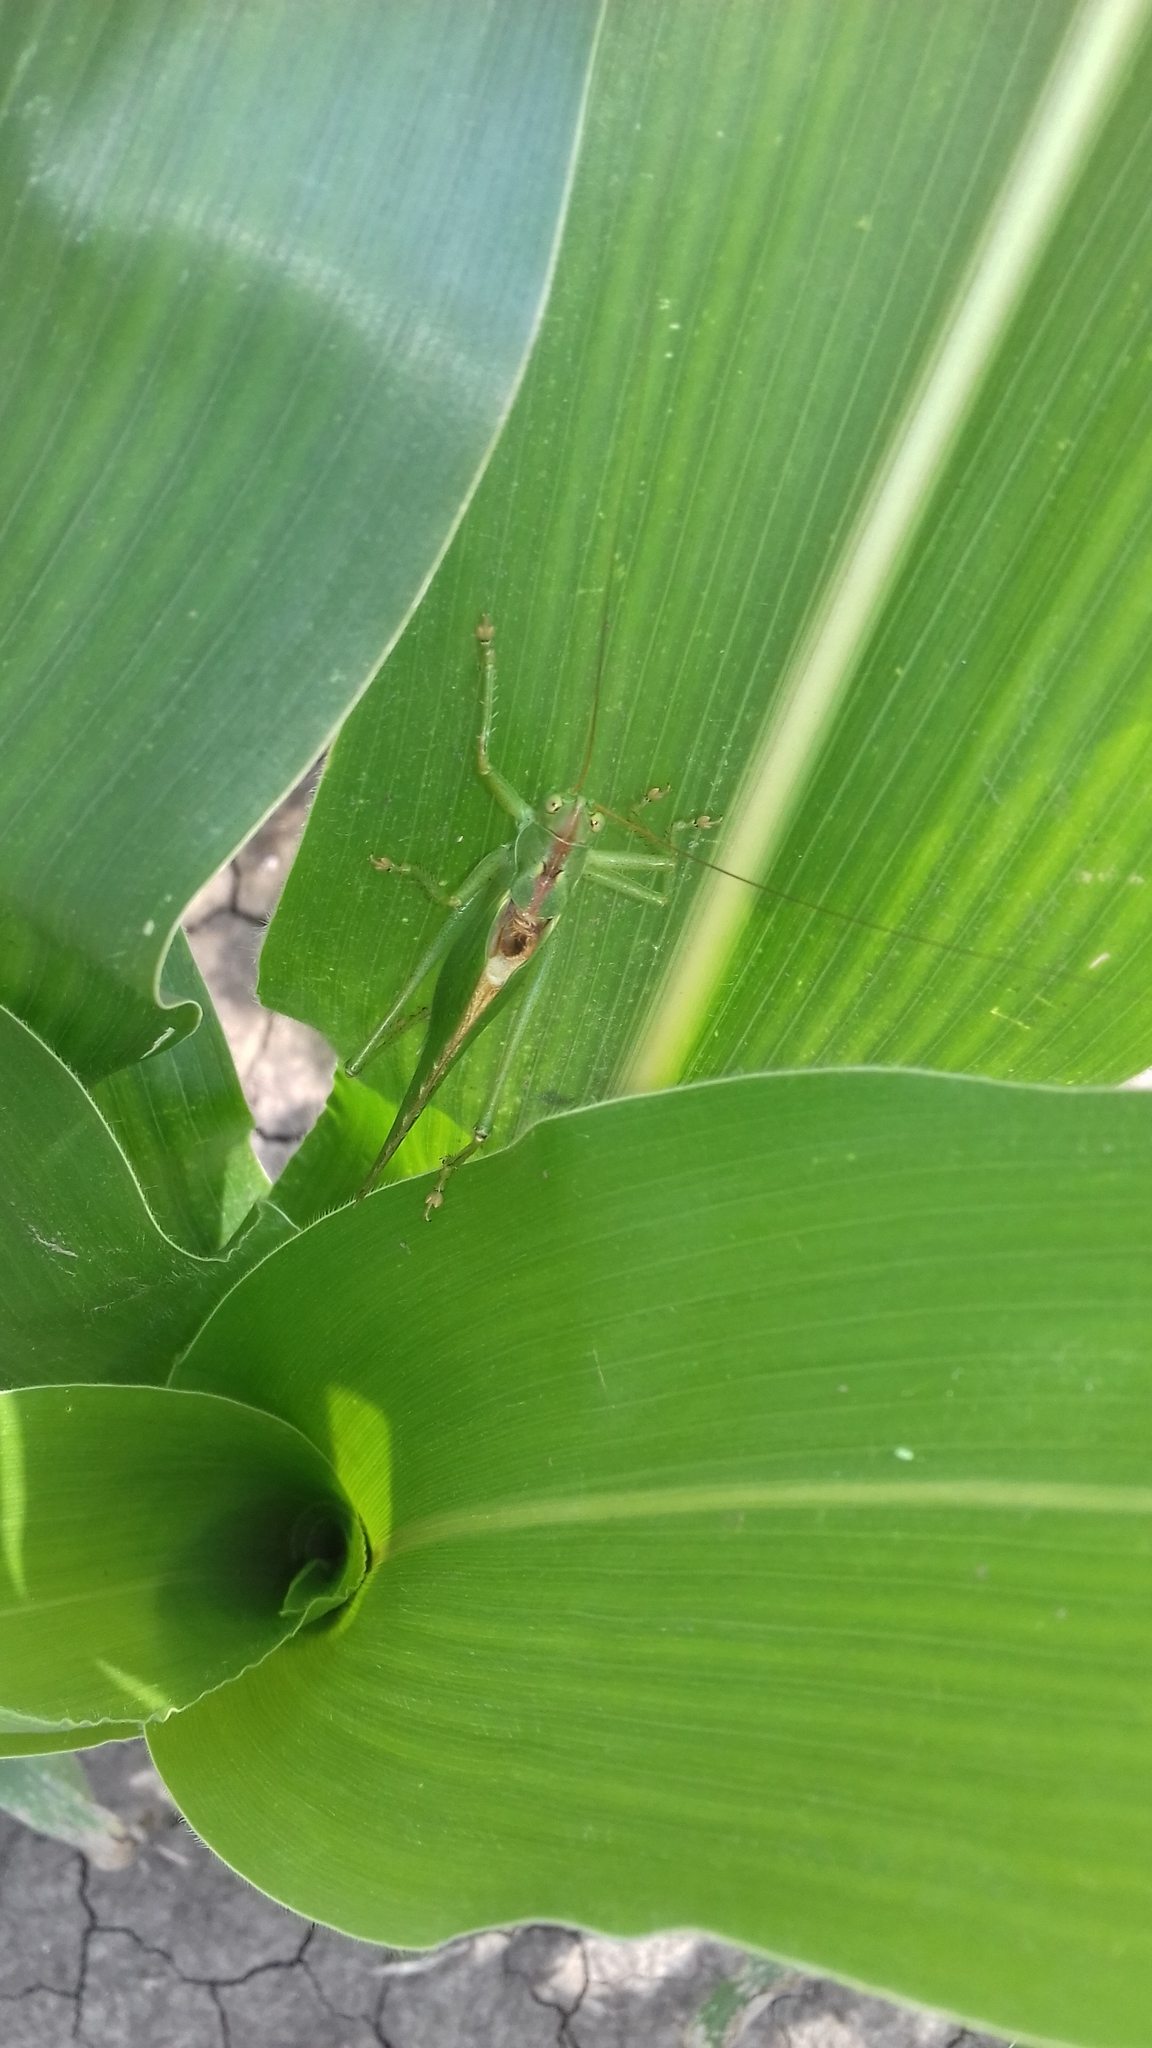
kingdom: Animalia
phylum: Arthropoda
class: Insecta
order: Orthoptera
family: Tettigoniidae
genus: Tettigonia
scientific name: Tettigonia viridissima
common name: Great green bush-cricket
